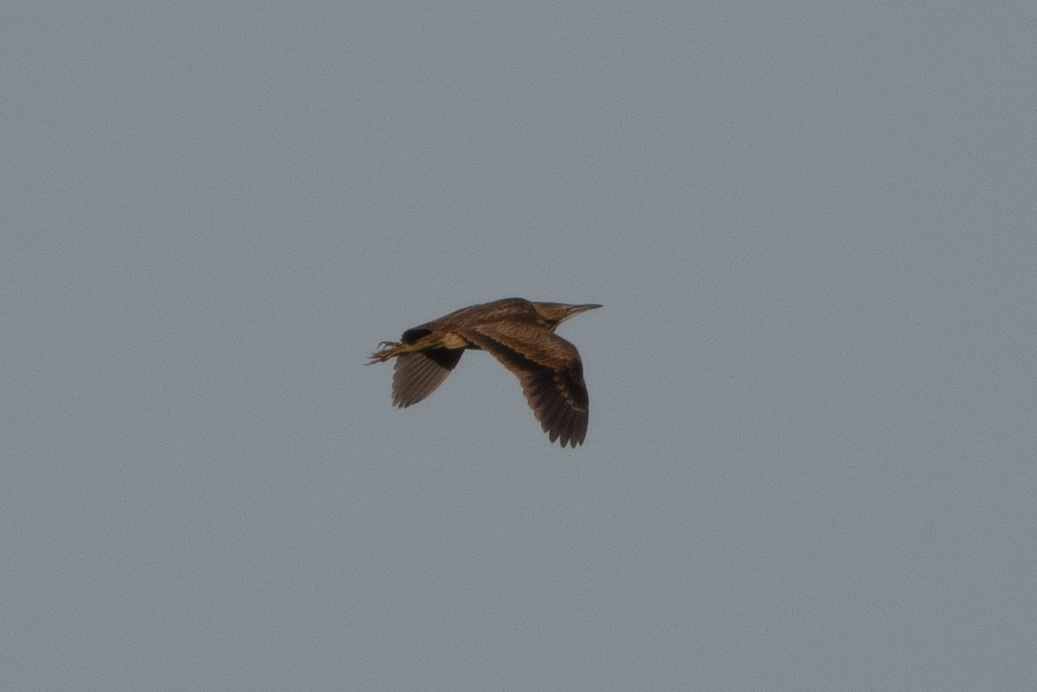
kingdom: Animalia
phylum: Chordata
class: Aves
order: Pelecaniformes
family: Ardeidae
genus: Botaurus
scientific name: Botaurus lentiginosus
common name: American bittern
